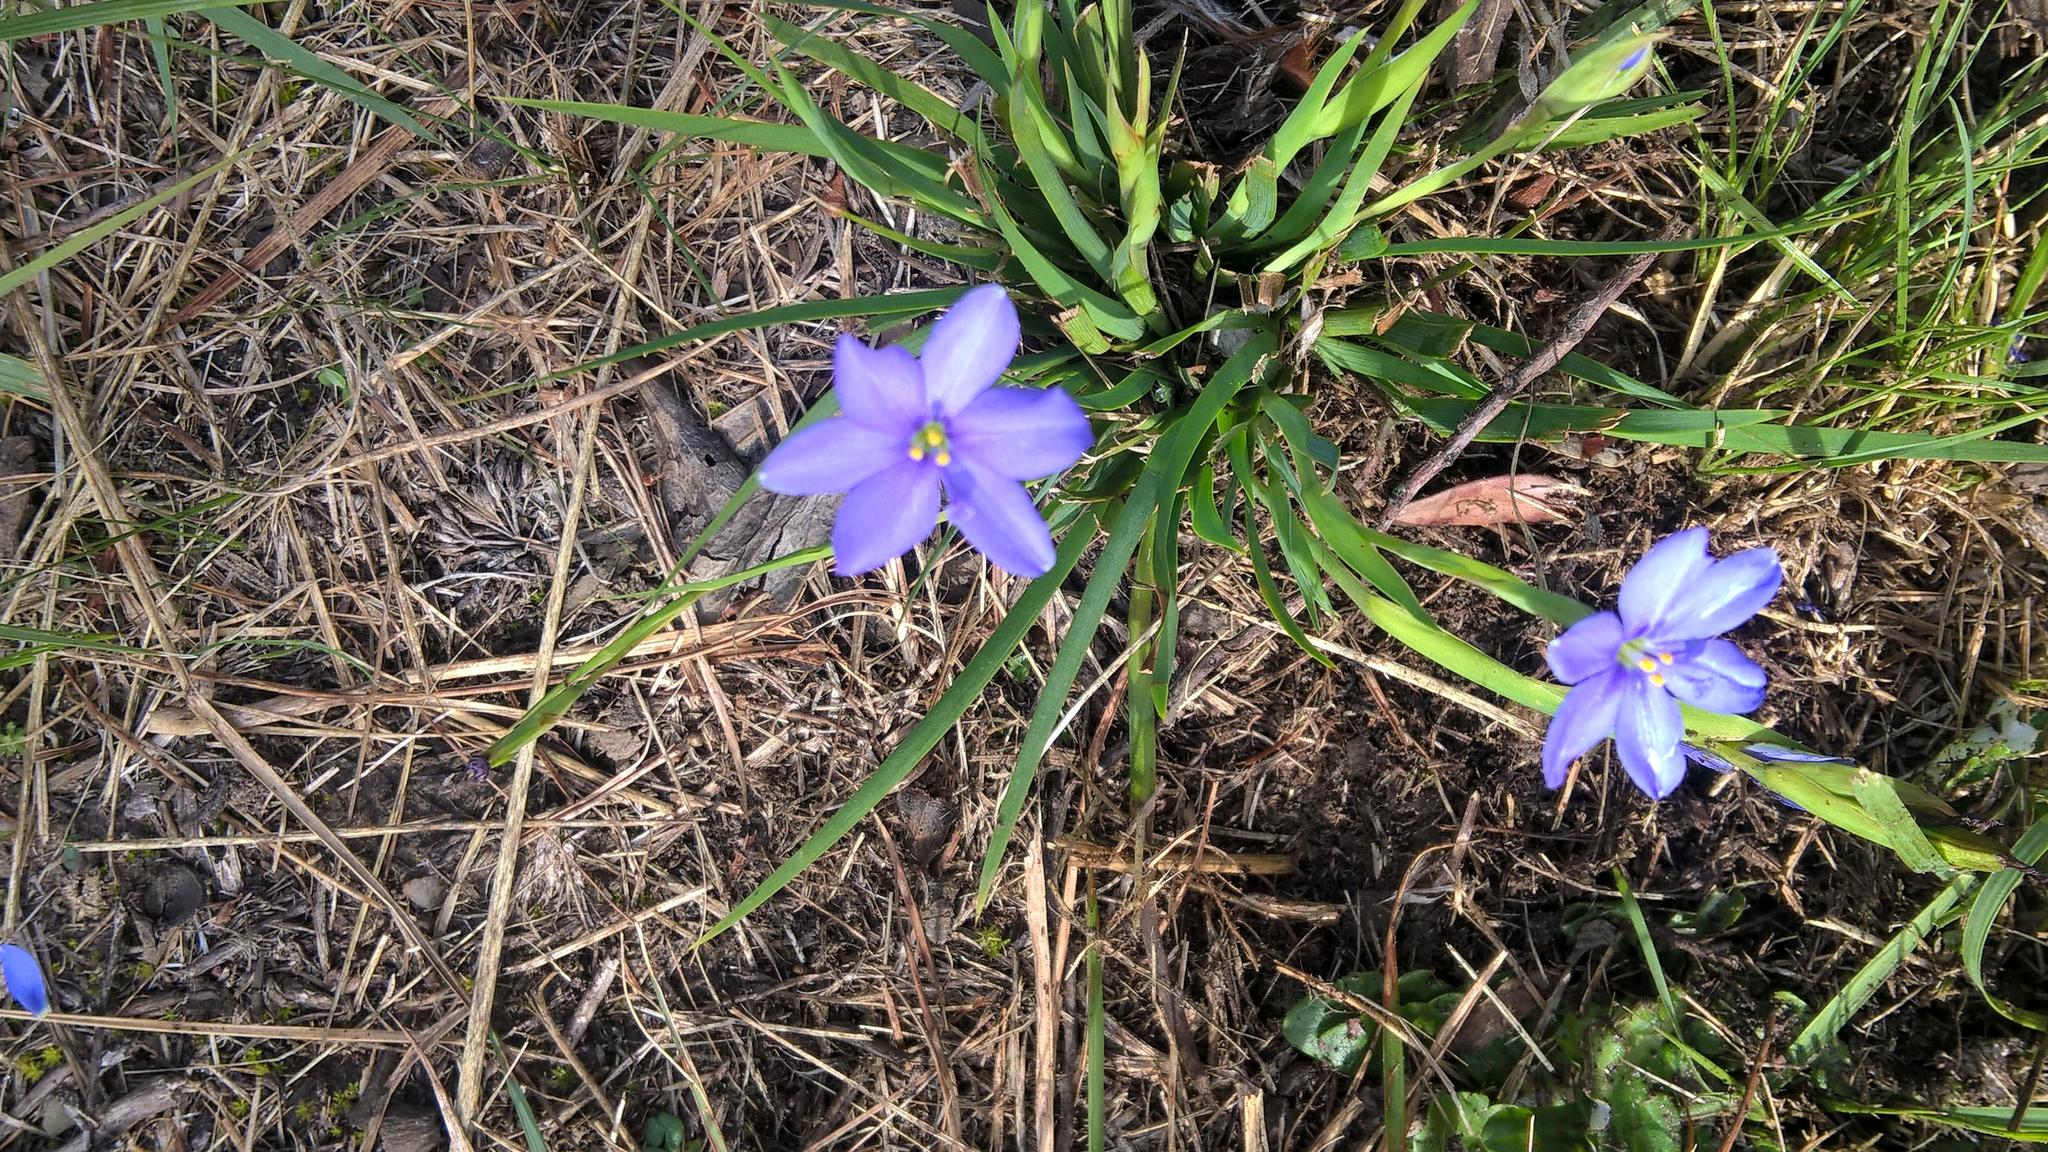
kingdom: Plantae
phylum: Tracheophyta
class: Liliopsida
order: Asparagales
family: Iridaceae
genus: Aristea
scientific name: Aristea pusilla
